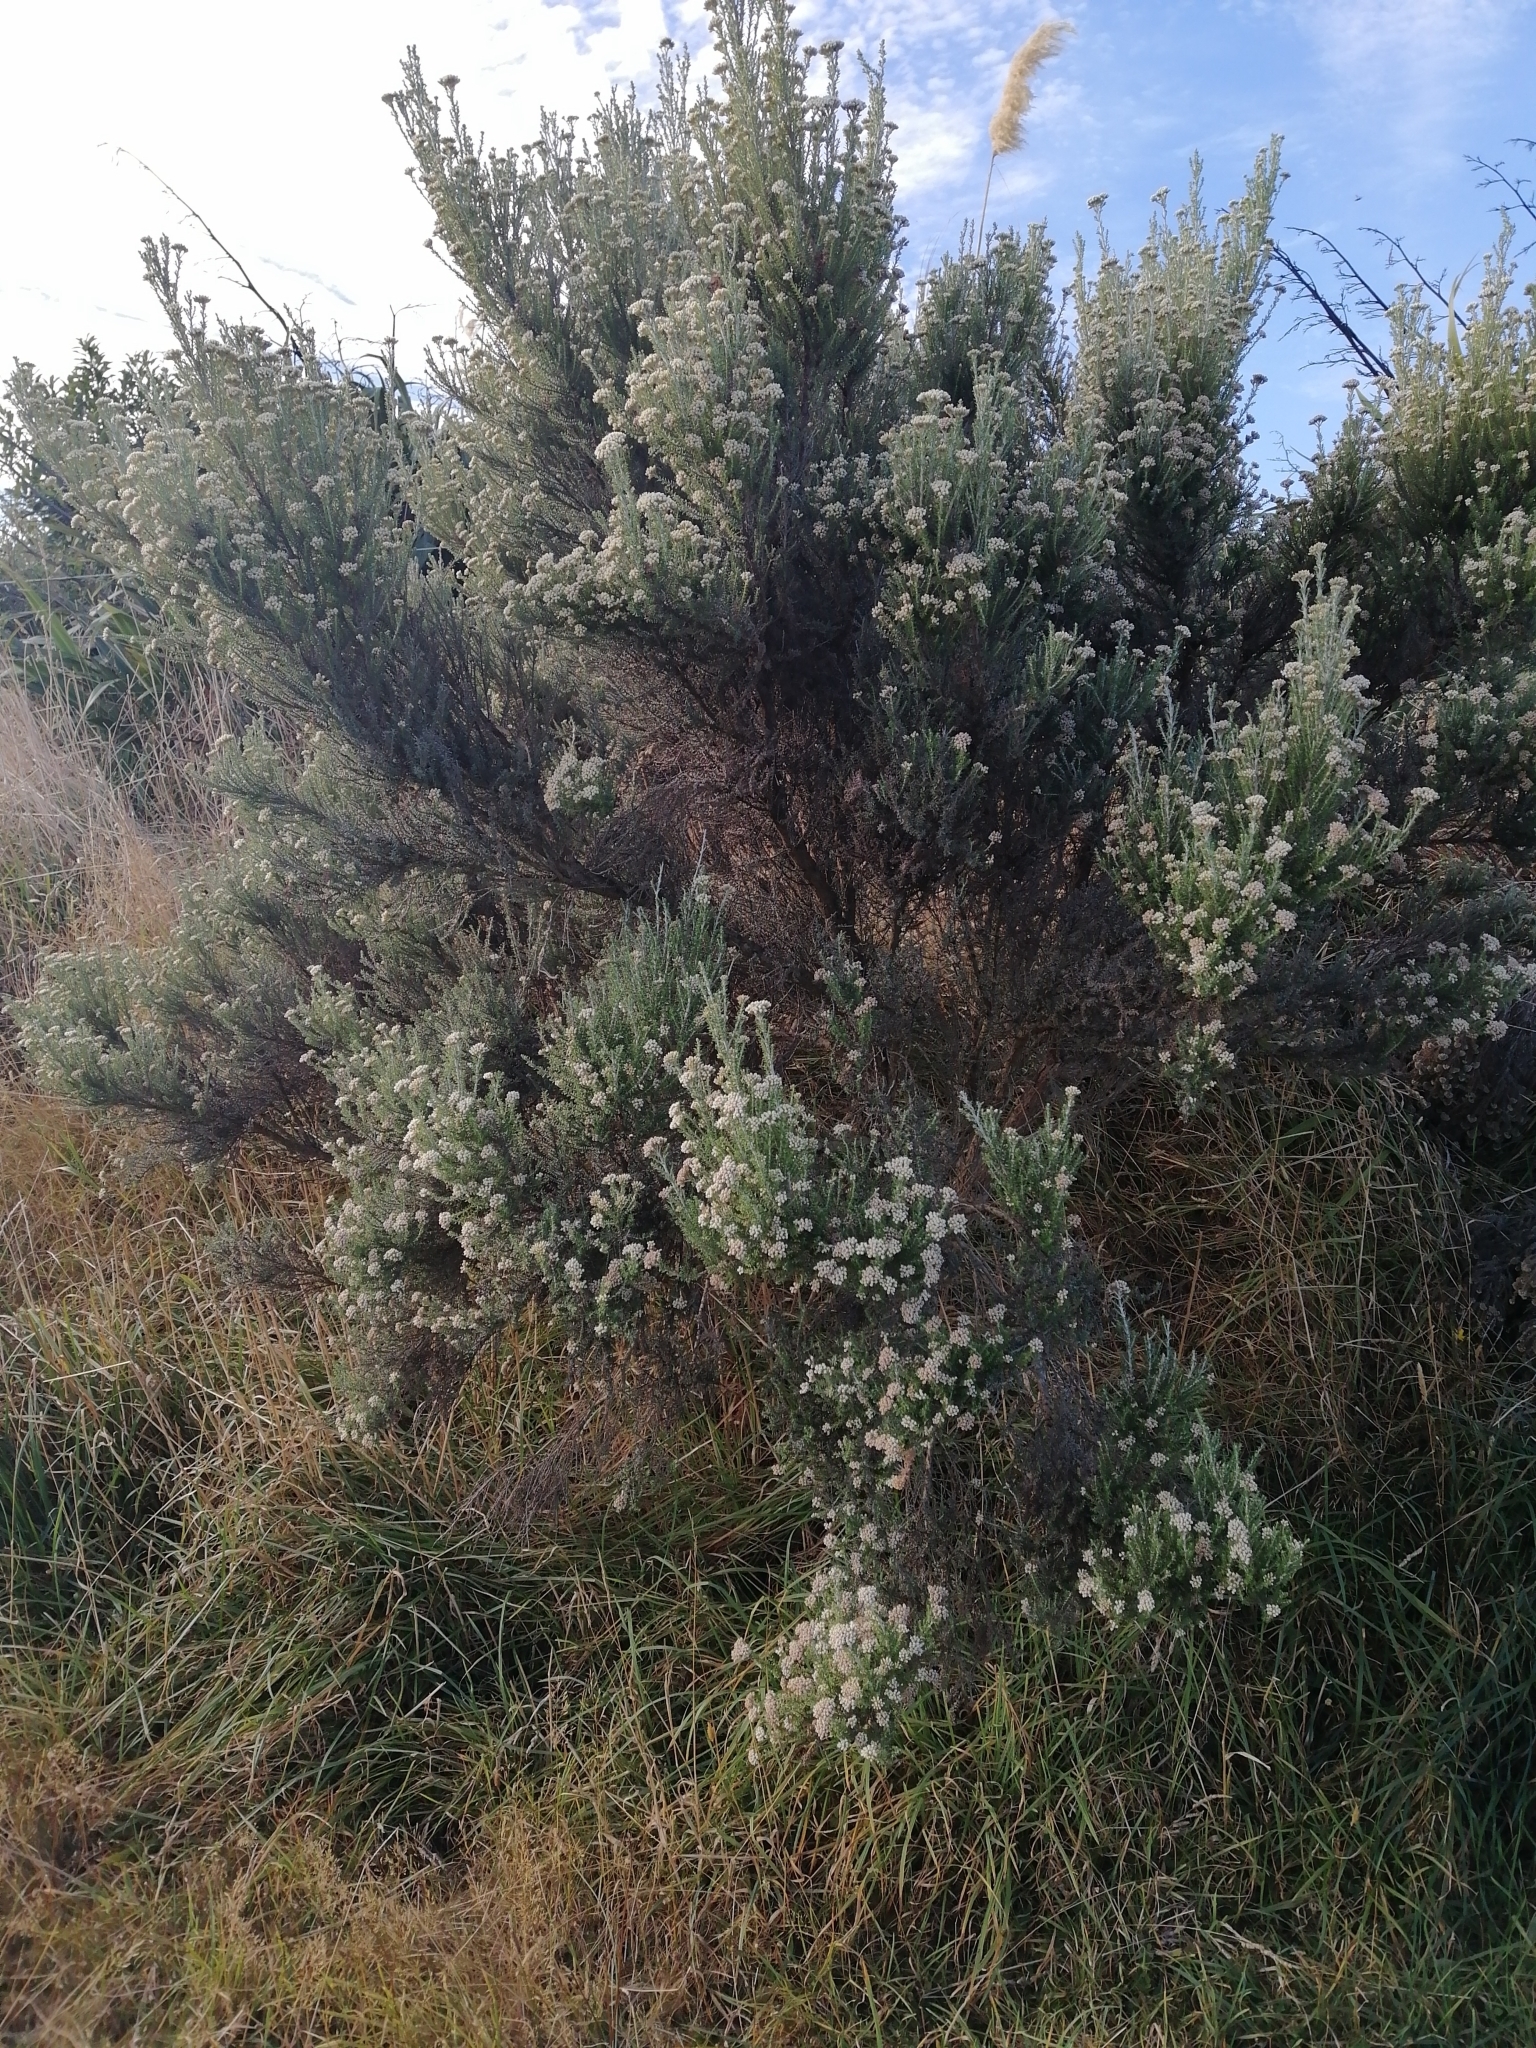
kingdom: Plantae
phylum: Tracheophyta
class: Magnoliopsida
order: Asterales
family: Asteraceae
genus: Ozothamnus
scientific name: Ozothamnus leptophyllus
